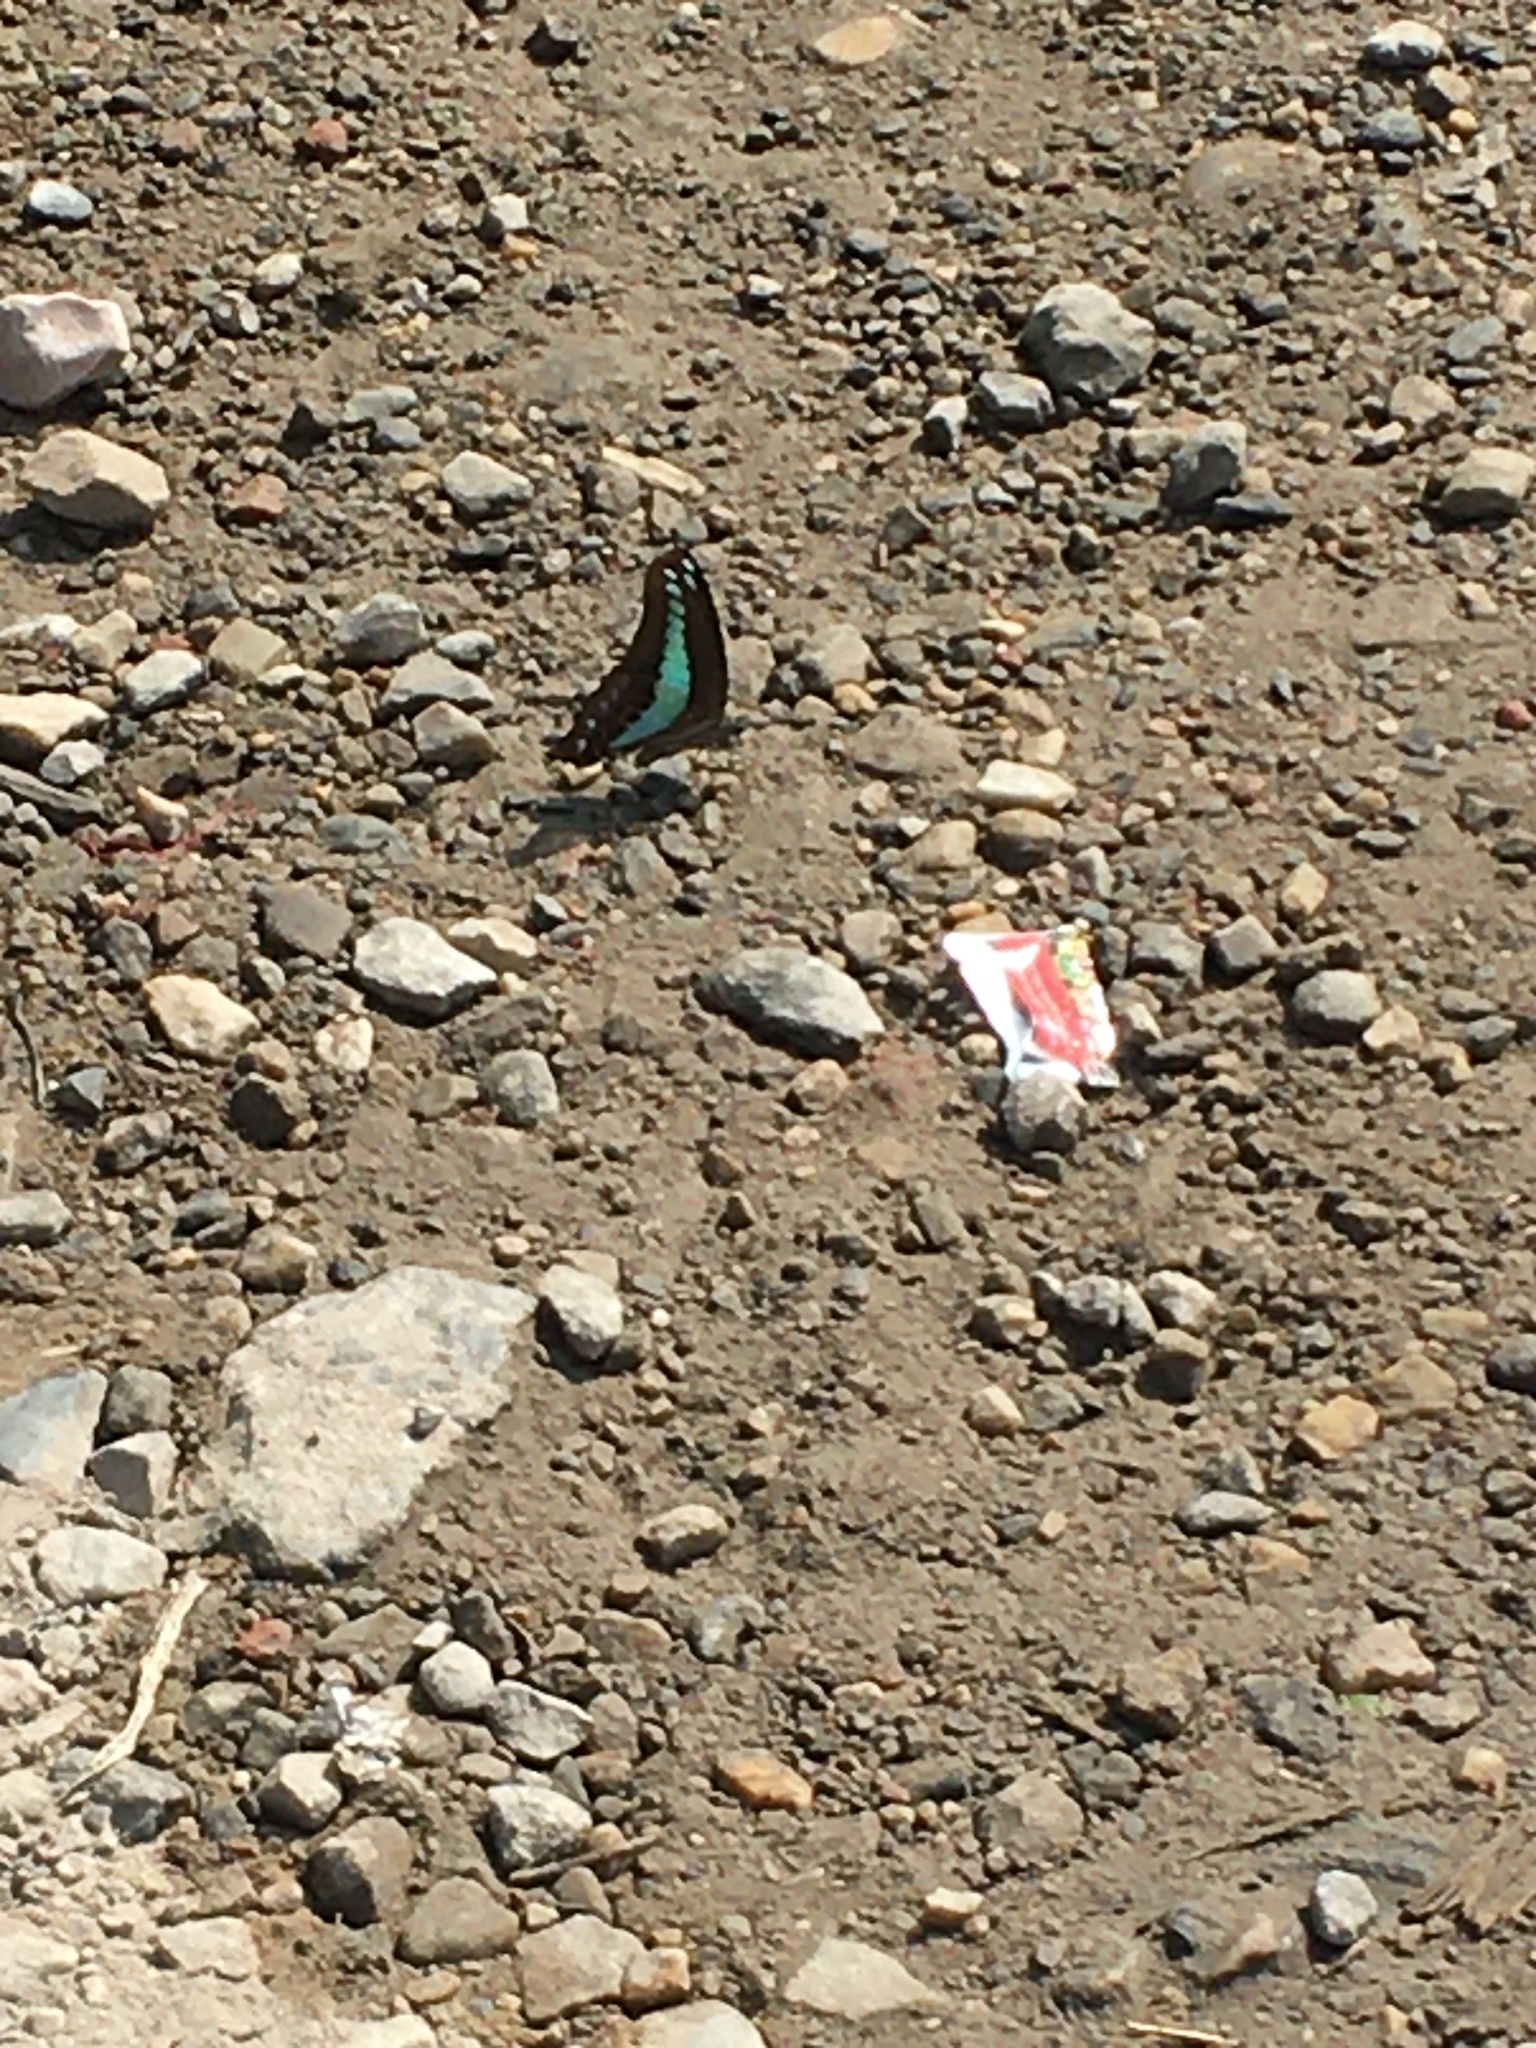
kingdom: Fungi
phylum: Ascomycota
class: Sordariomycetes
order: Microascales
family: Microascaceae
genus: Graphium
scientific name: Graphium sarpedon
